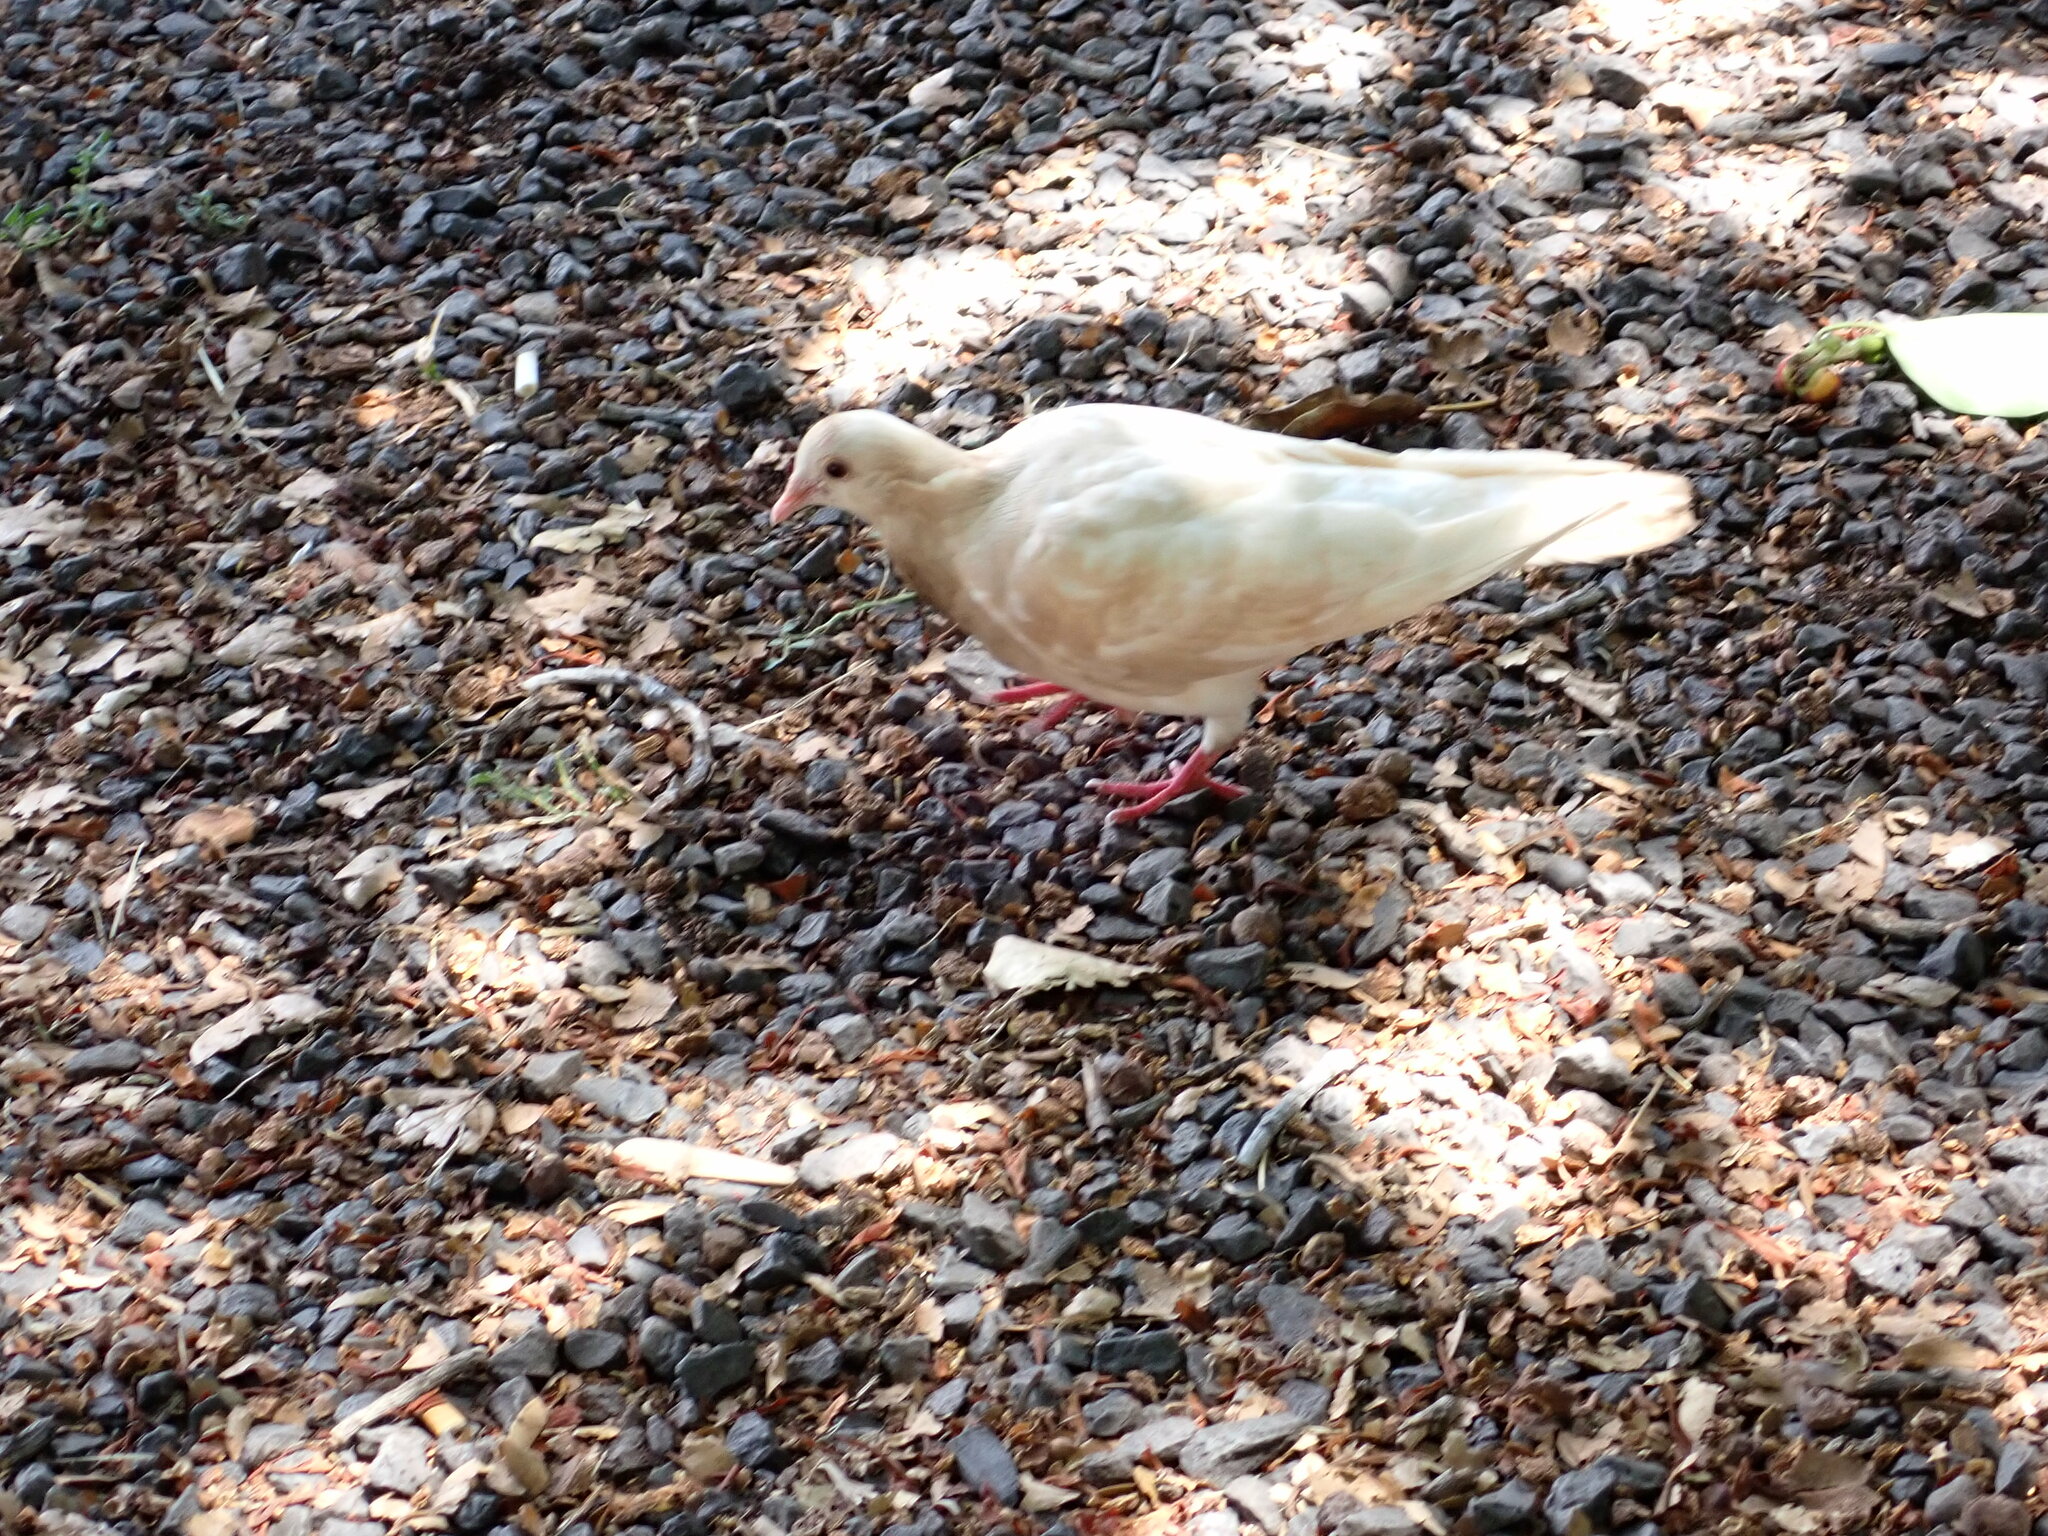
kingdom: Animalia
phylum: Chordata
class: Aves
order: Columbiformes
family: Columbidae
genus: Columba
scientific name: Columba livia
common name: Rock pigeon
